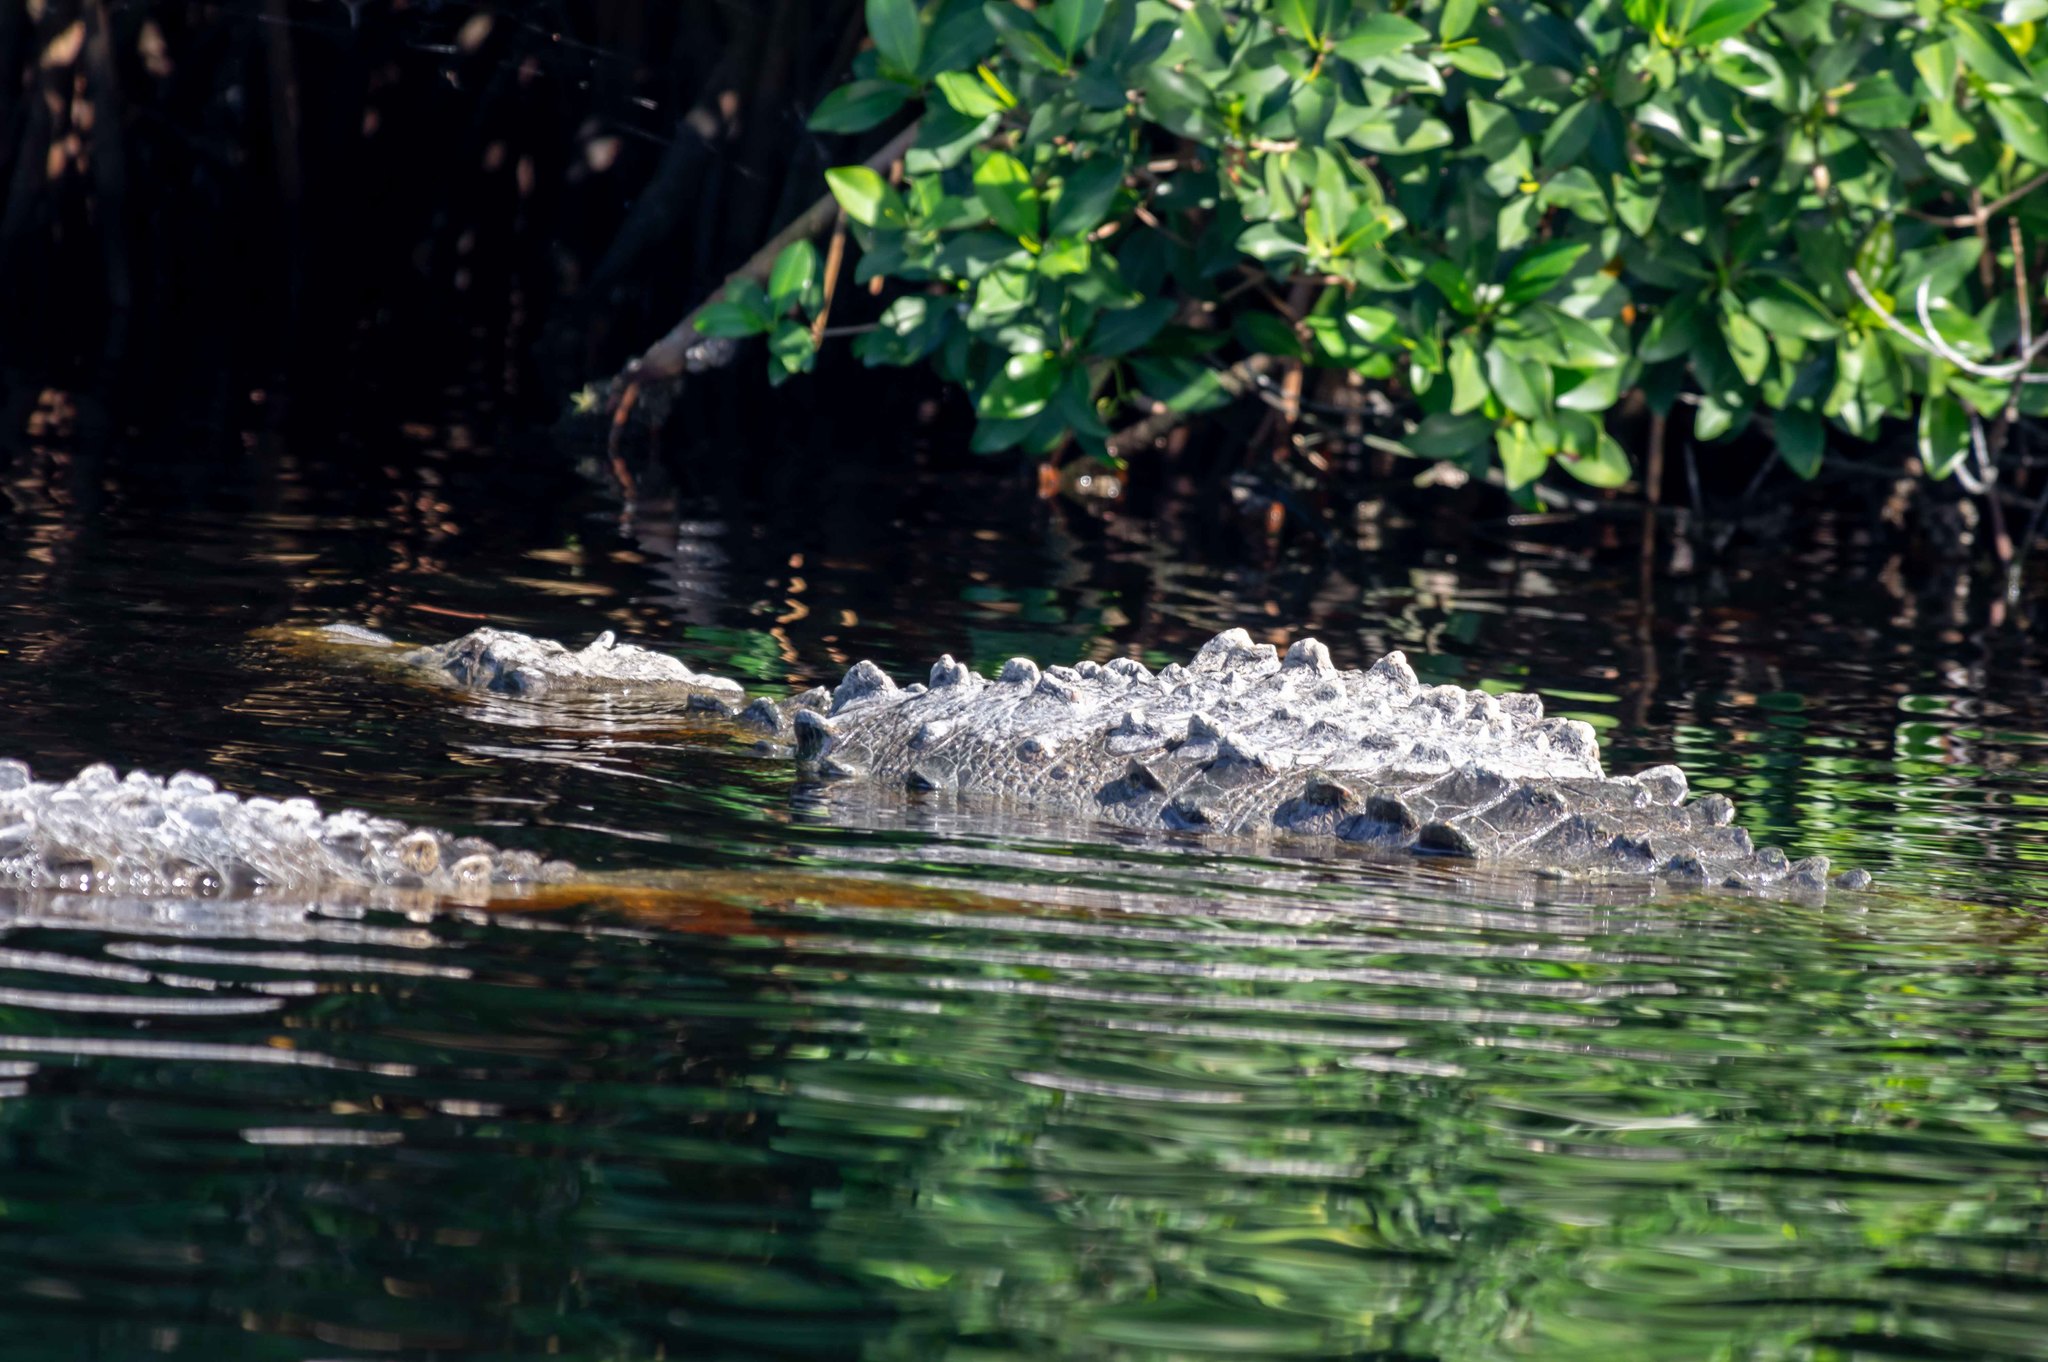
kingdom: Animalia
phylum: Chordata
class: Crocodylia
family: Crocodylidae
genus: Crocodylus
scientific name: Crocodylus acutus
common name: American crocodile
